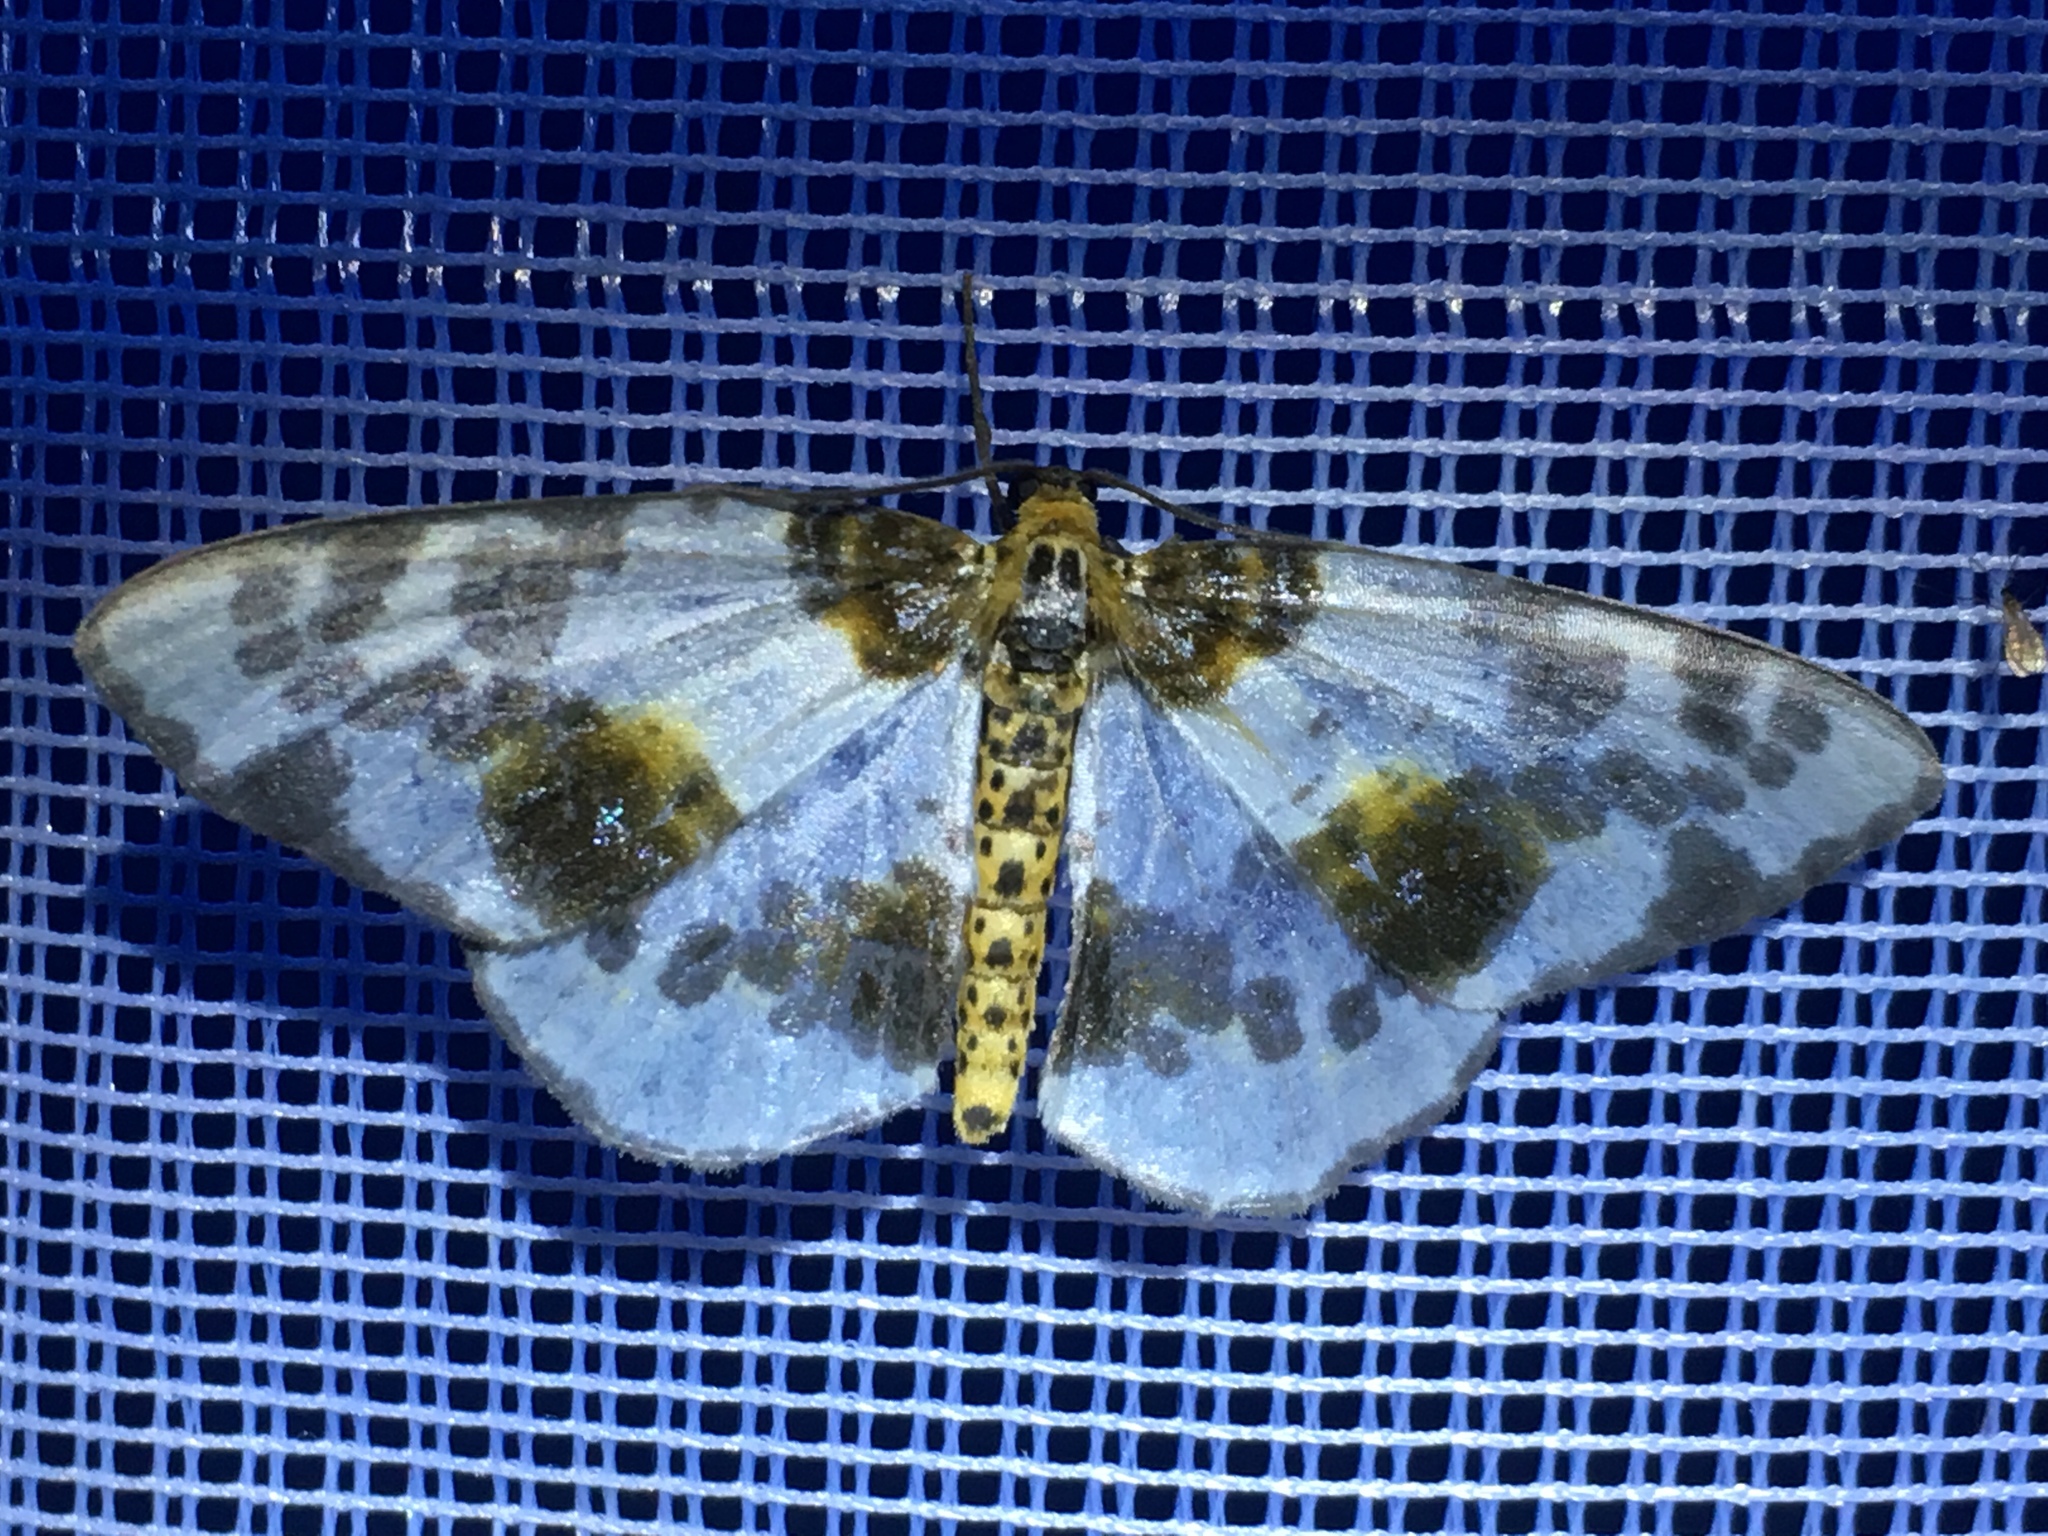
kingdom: Animalia
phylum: Arthropoda
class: Insecta
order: Lepidoptera
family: Geometridae
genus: Abraxas
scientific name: Abraxas sylvata
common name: Clouded magpie
